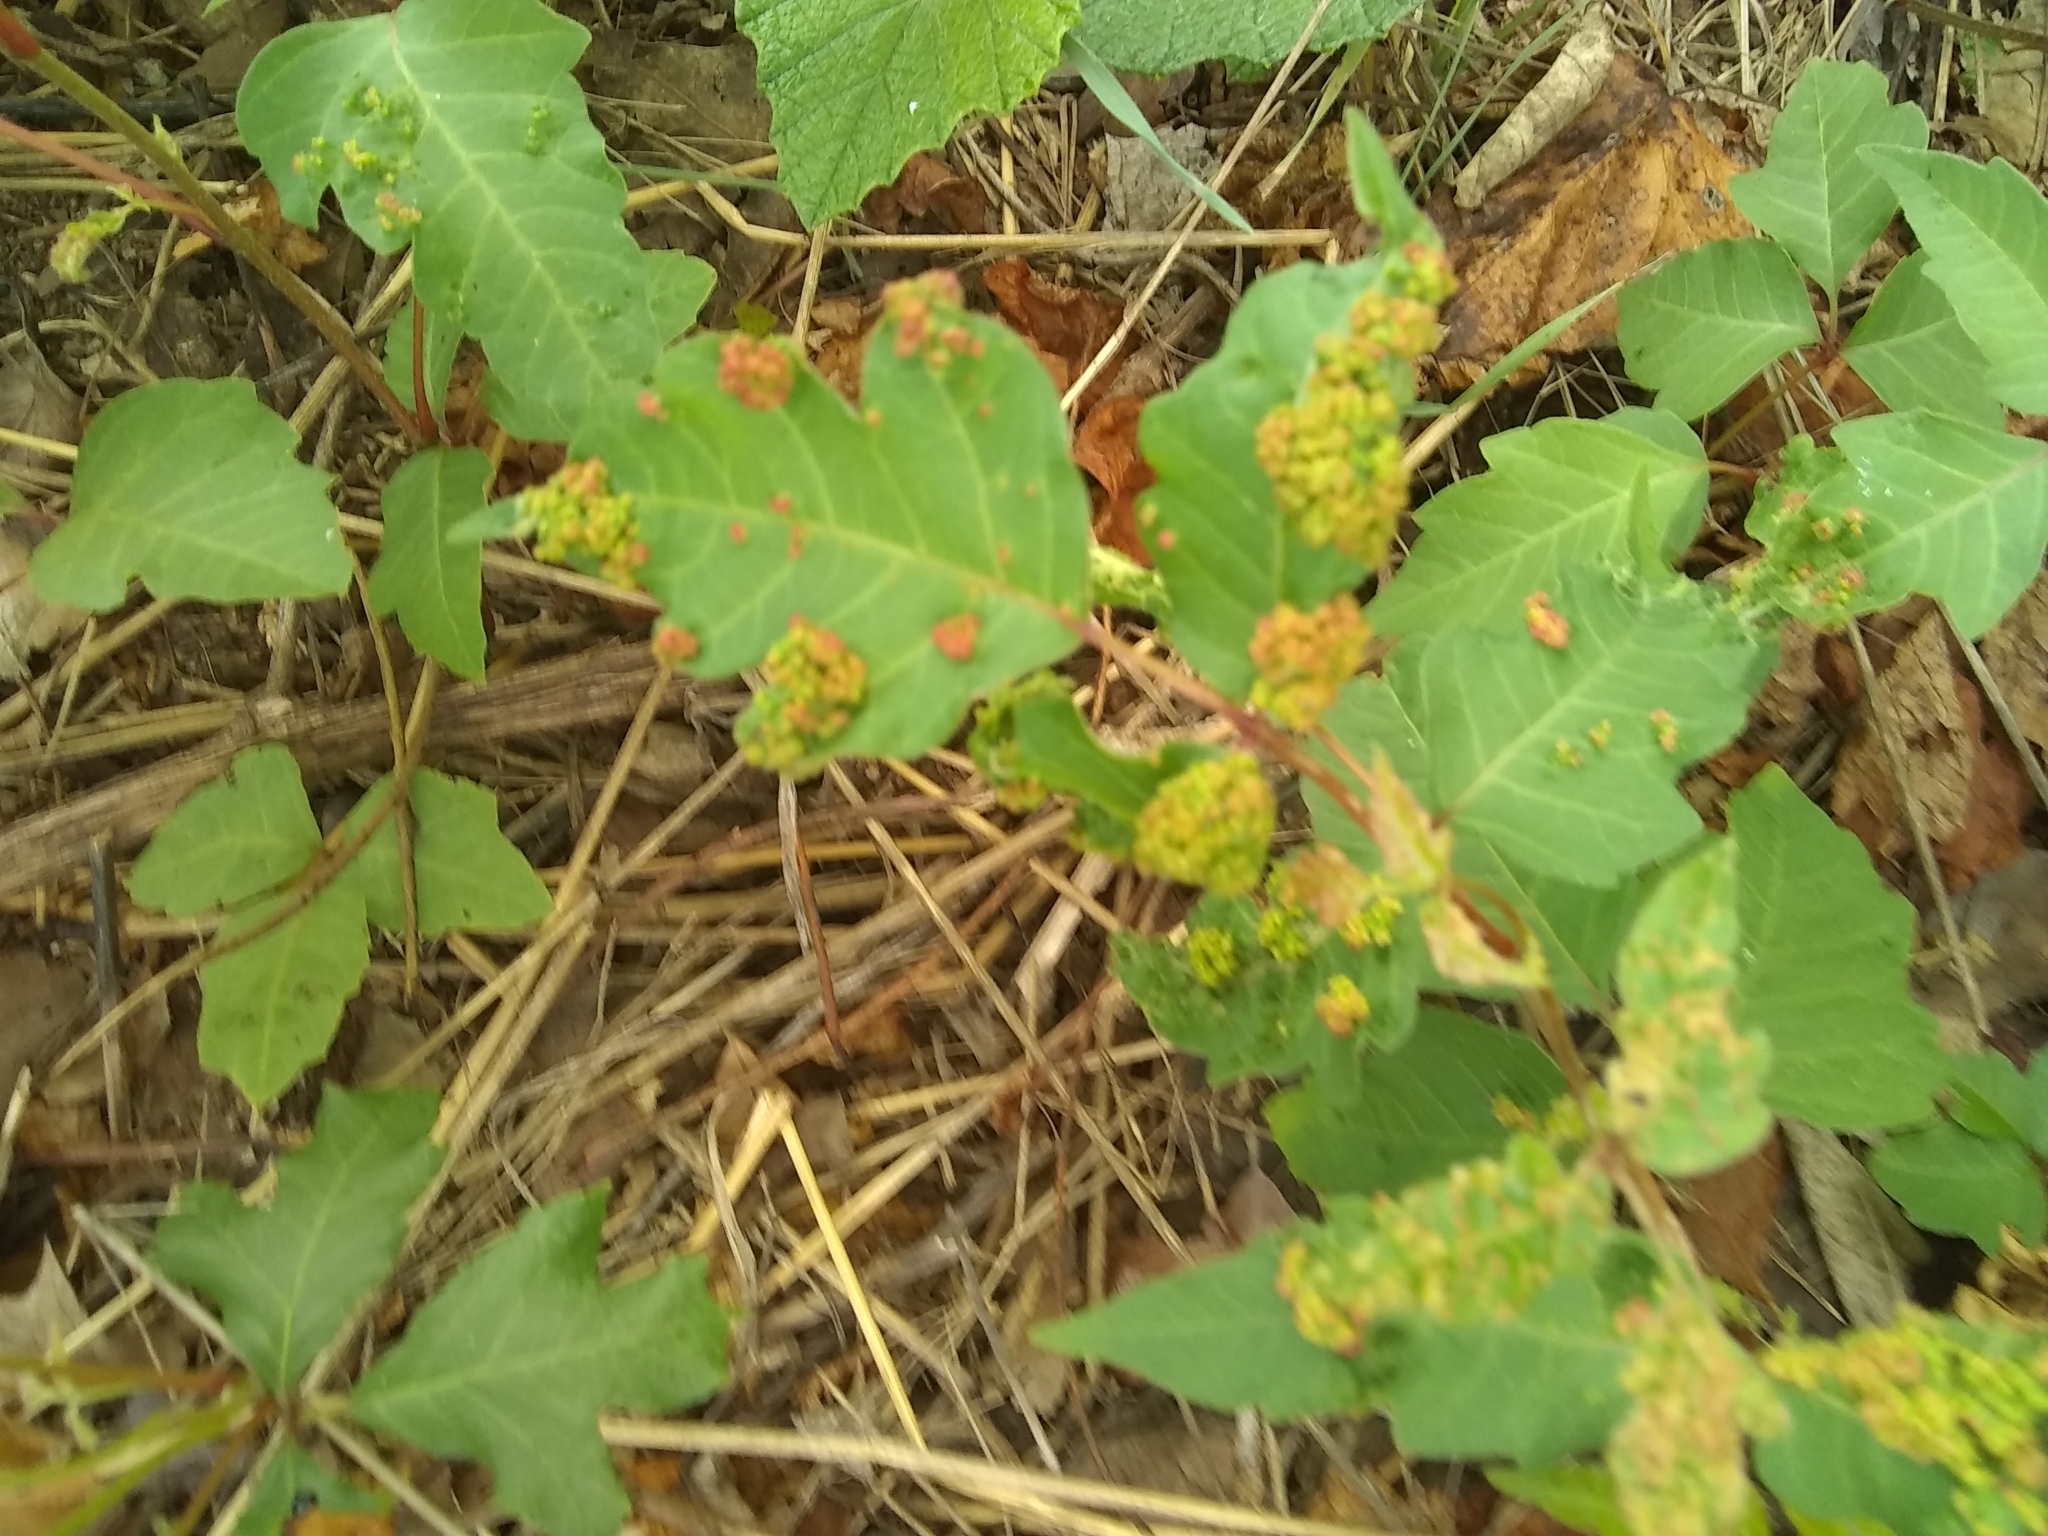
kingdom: Animalia
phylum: Arthropoda
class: Arachnida
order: Trombidiformes
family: Eriophyidae
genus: Aculops
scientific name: Aculops
